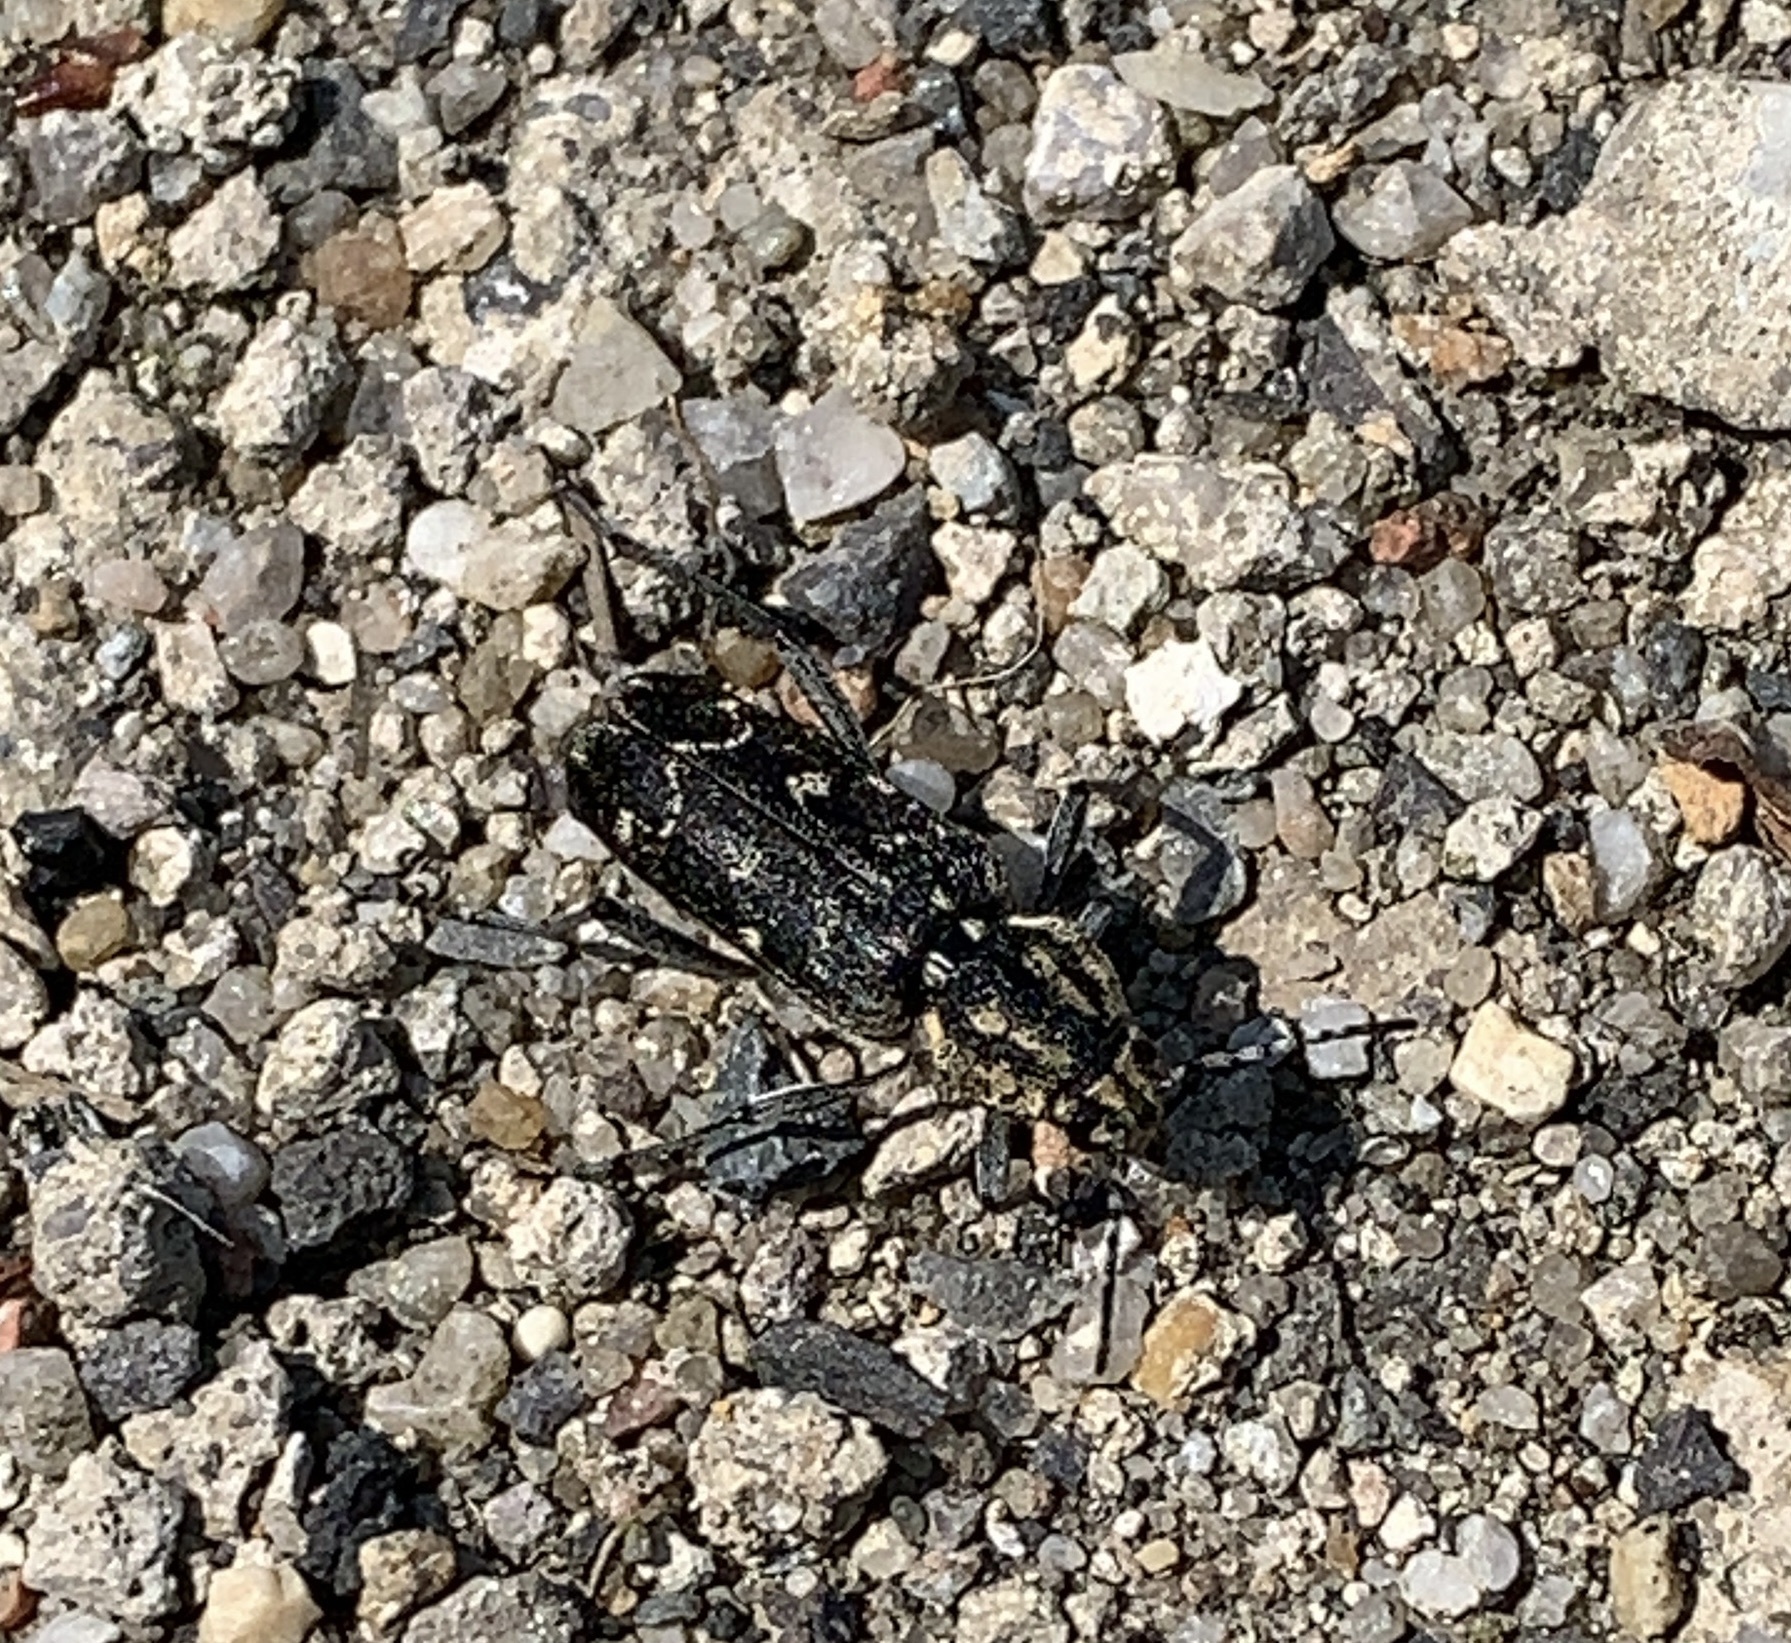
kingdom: Animalia
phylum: Arthropoda
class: Insecta
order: Coleoptera
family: Cerambycidae
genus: Xylotrechus
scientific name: Xylotrechus rusticus
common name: Grey tiger long-horned beetle
